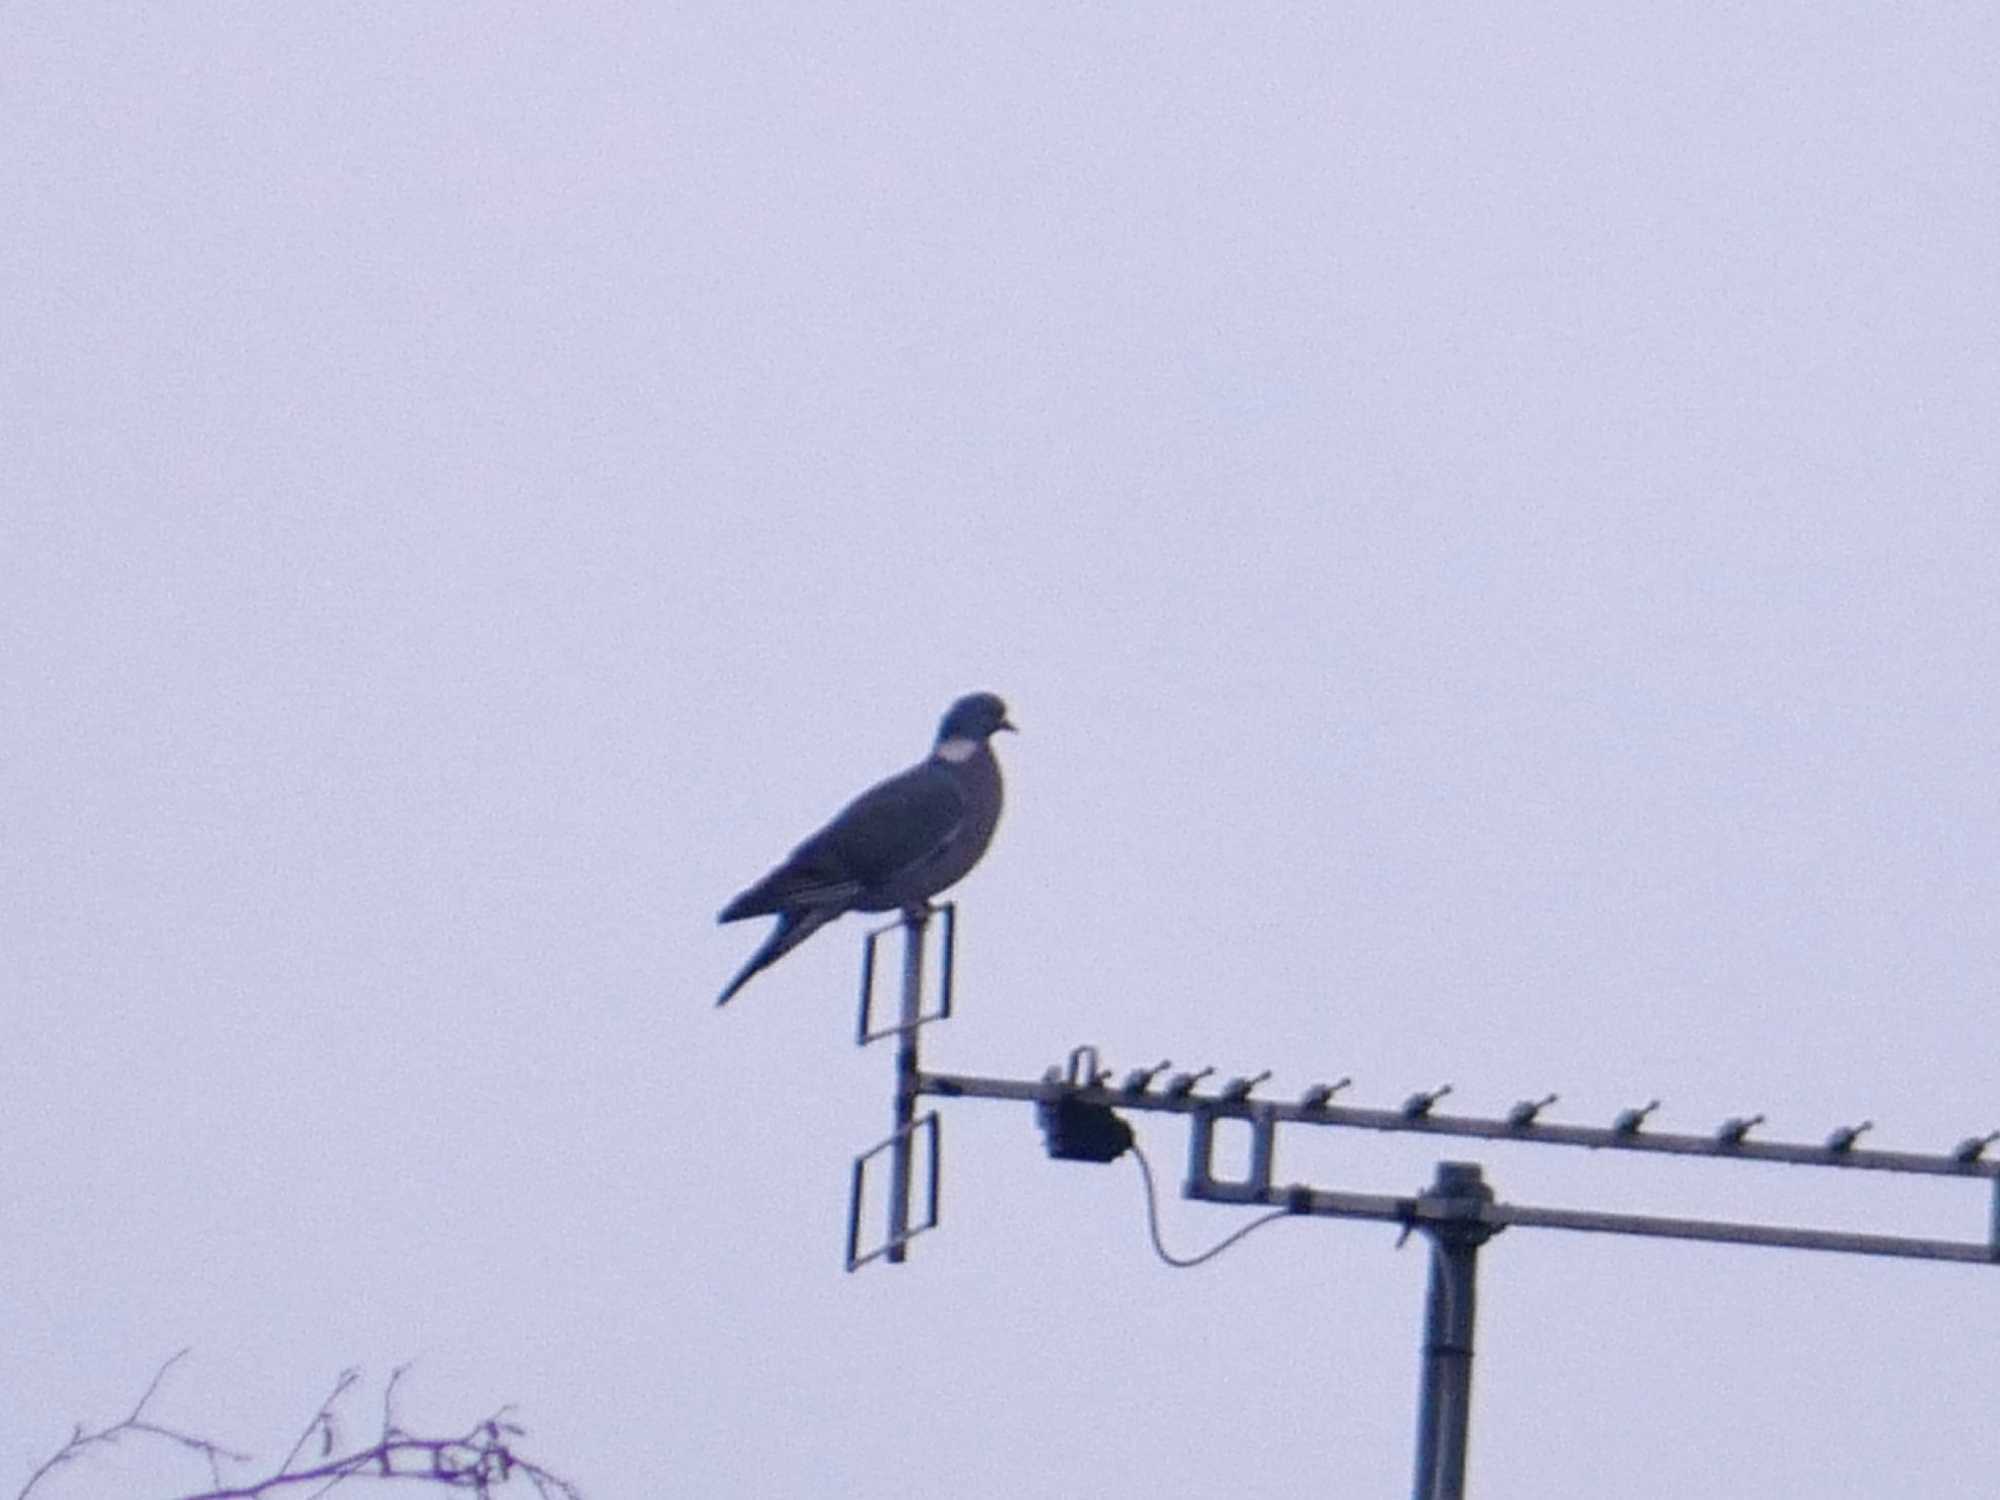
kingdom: Animalia
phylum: Chordata
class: Aves
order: Columbiformes
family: Columbidae
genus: Columba
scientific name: Columba palumbus
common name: Common wood pigeon
